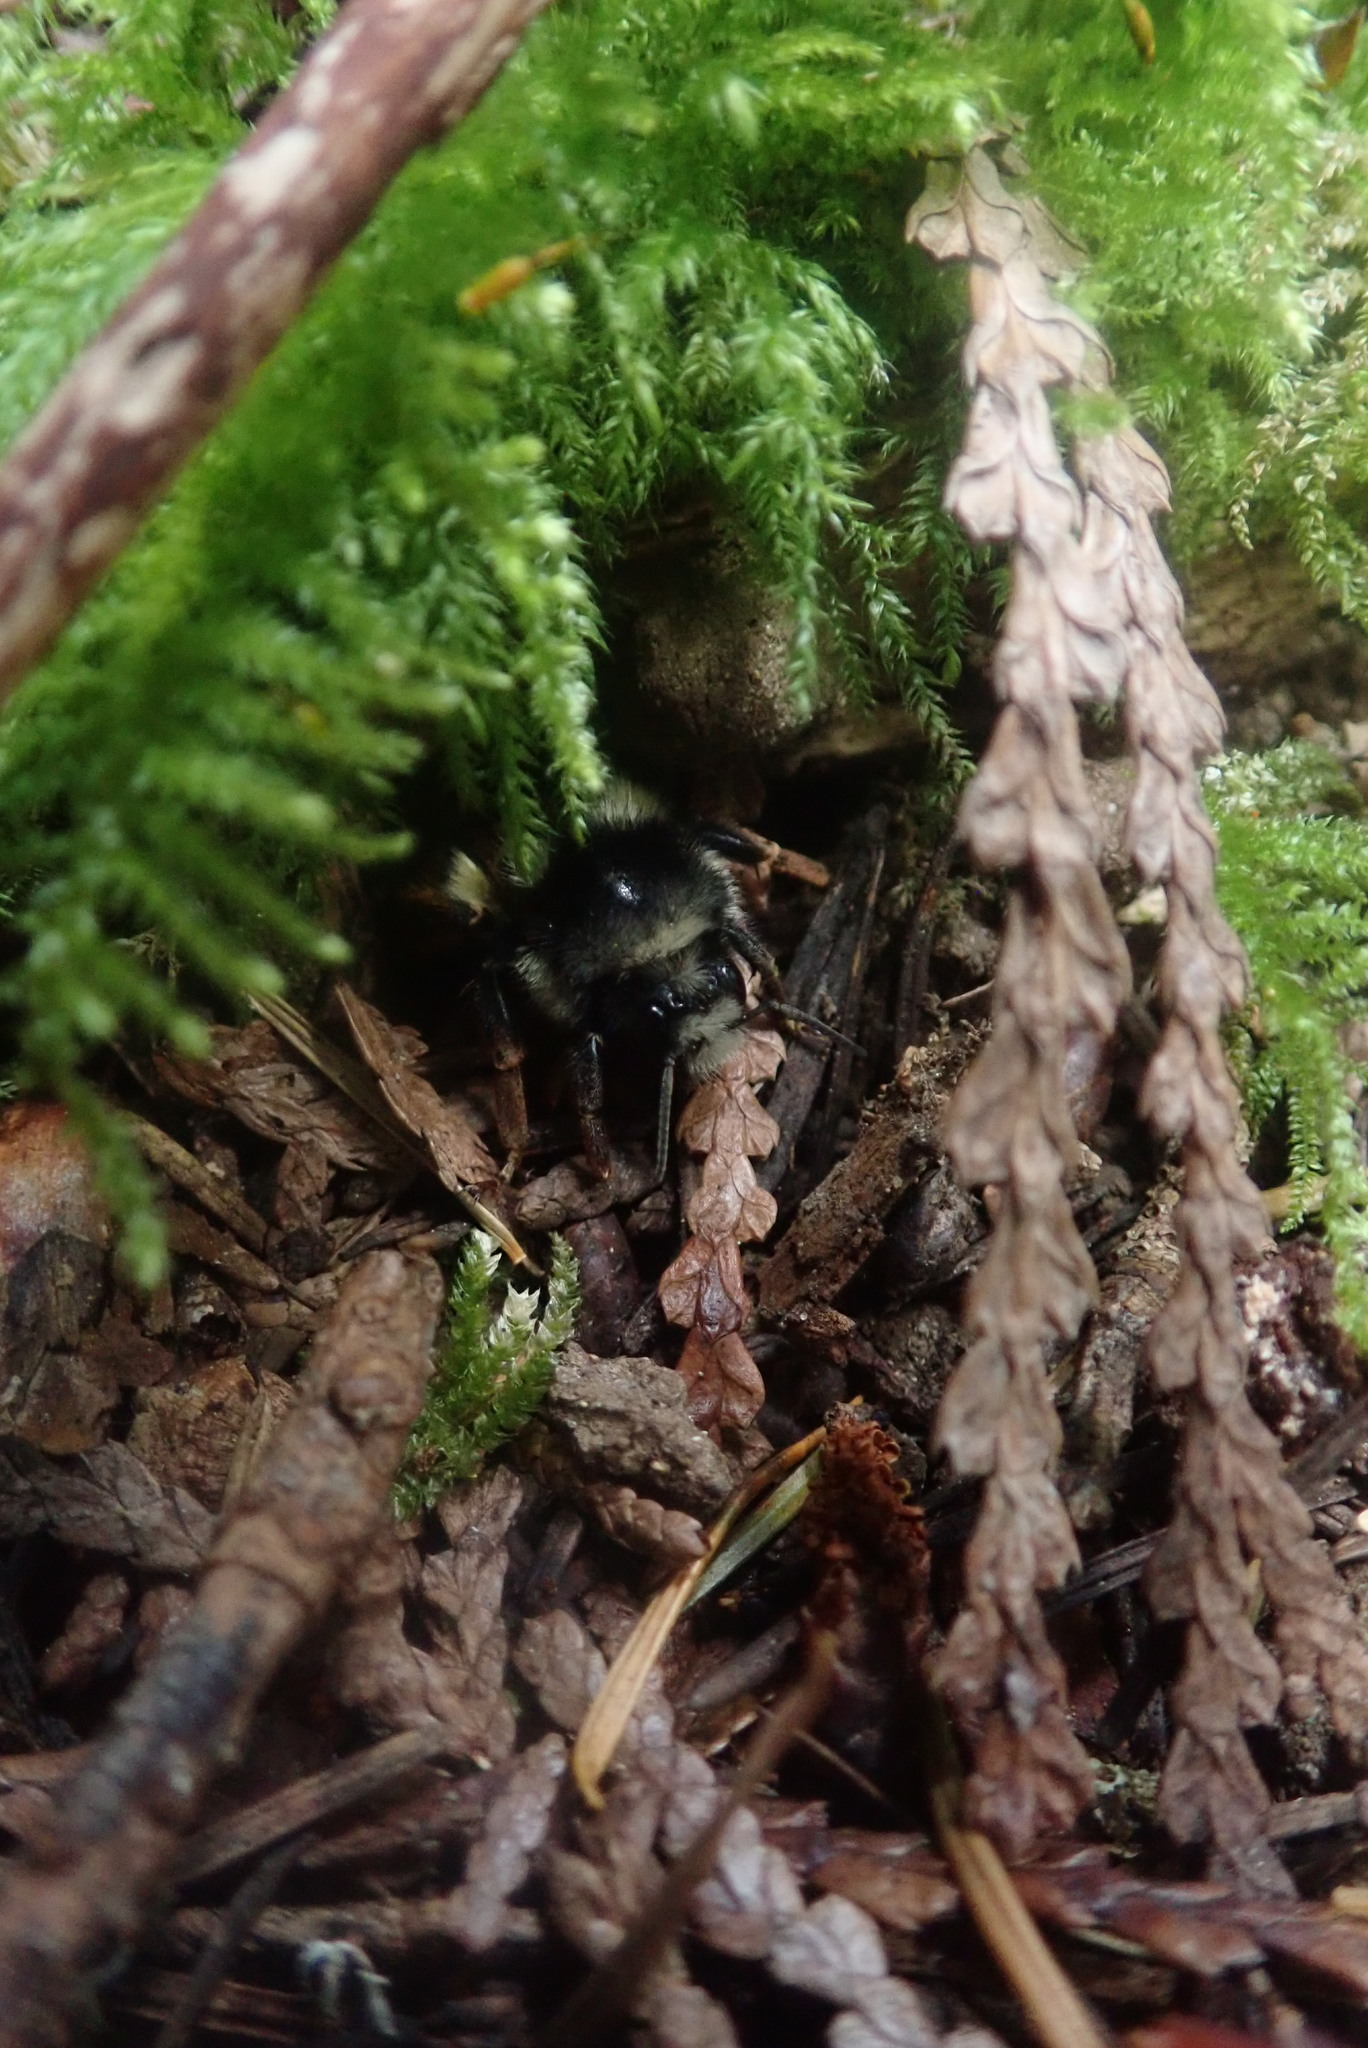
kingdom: Animalia
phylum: Arthropoda
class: Insecta
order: Hymenoptera
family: Apidae
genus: Bombus
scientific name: Bombus vancouverensis
